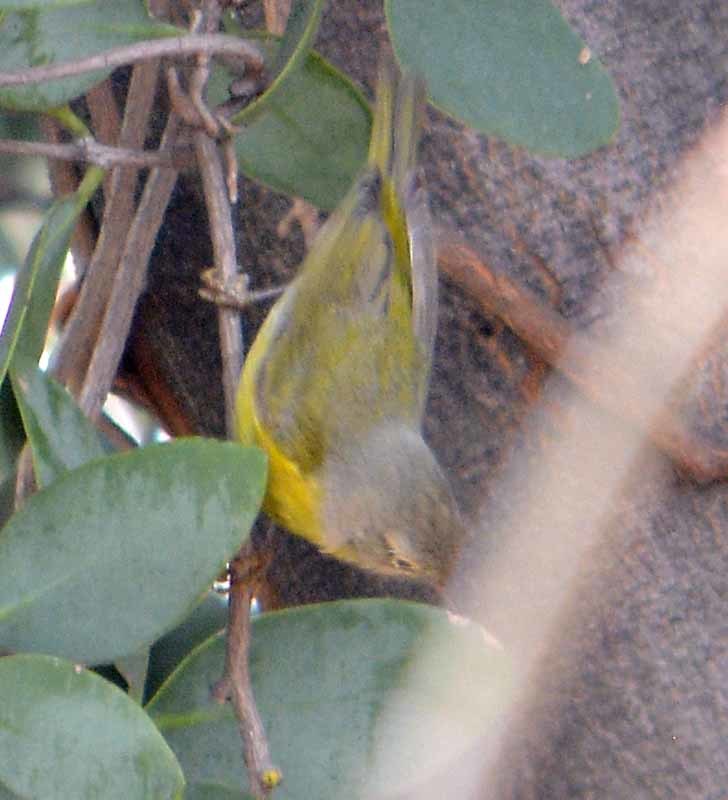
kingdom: Animalia
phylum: Chordata
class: Aves
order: Passeriformes
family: Parulidae
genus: Leiothlypis
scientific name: Leiothlypis ruficapilla
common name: Nashville warbler
